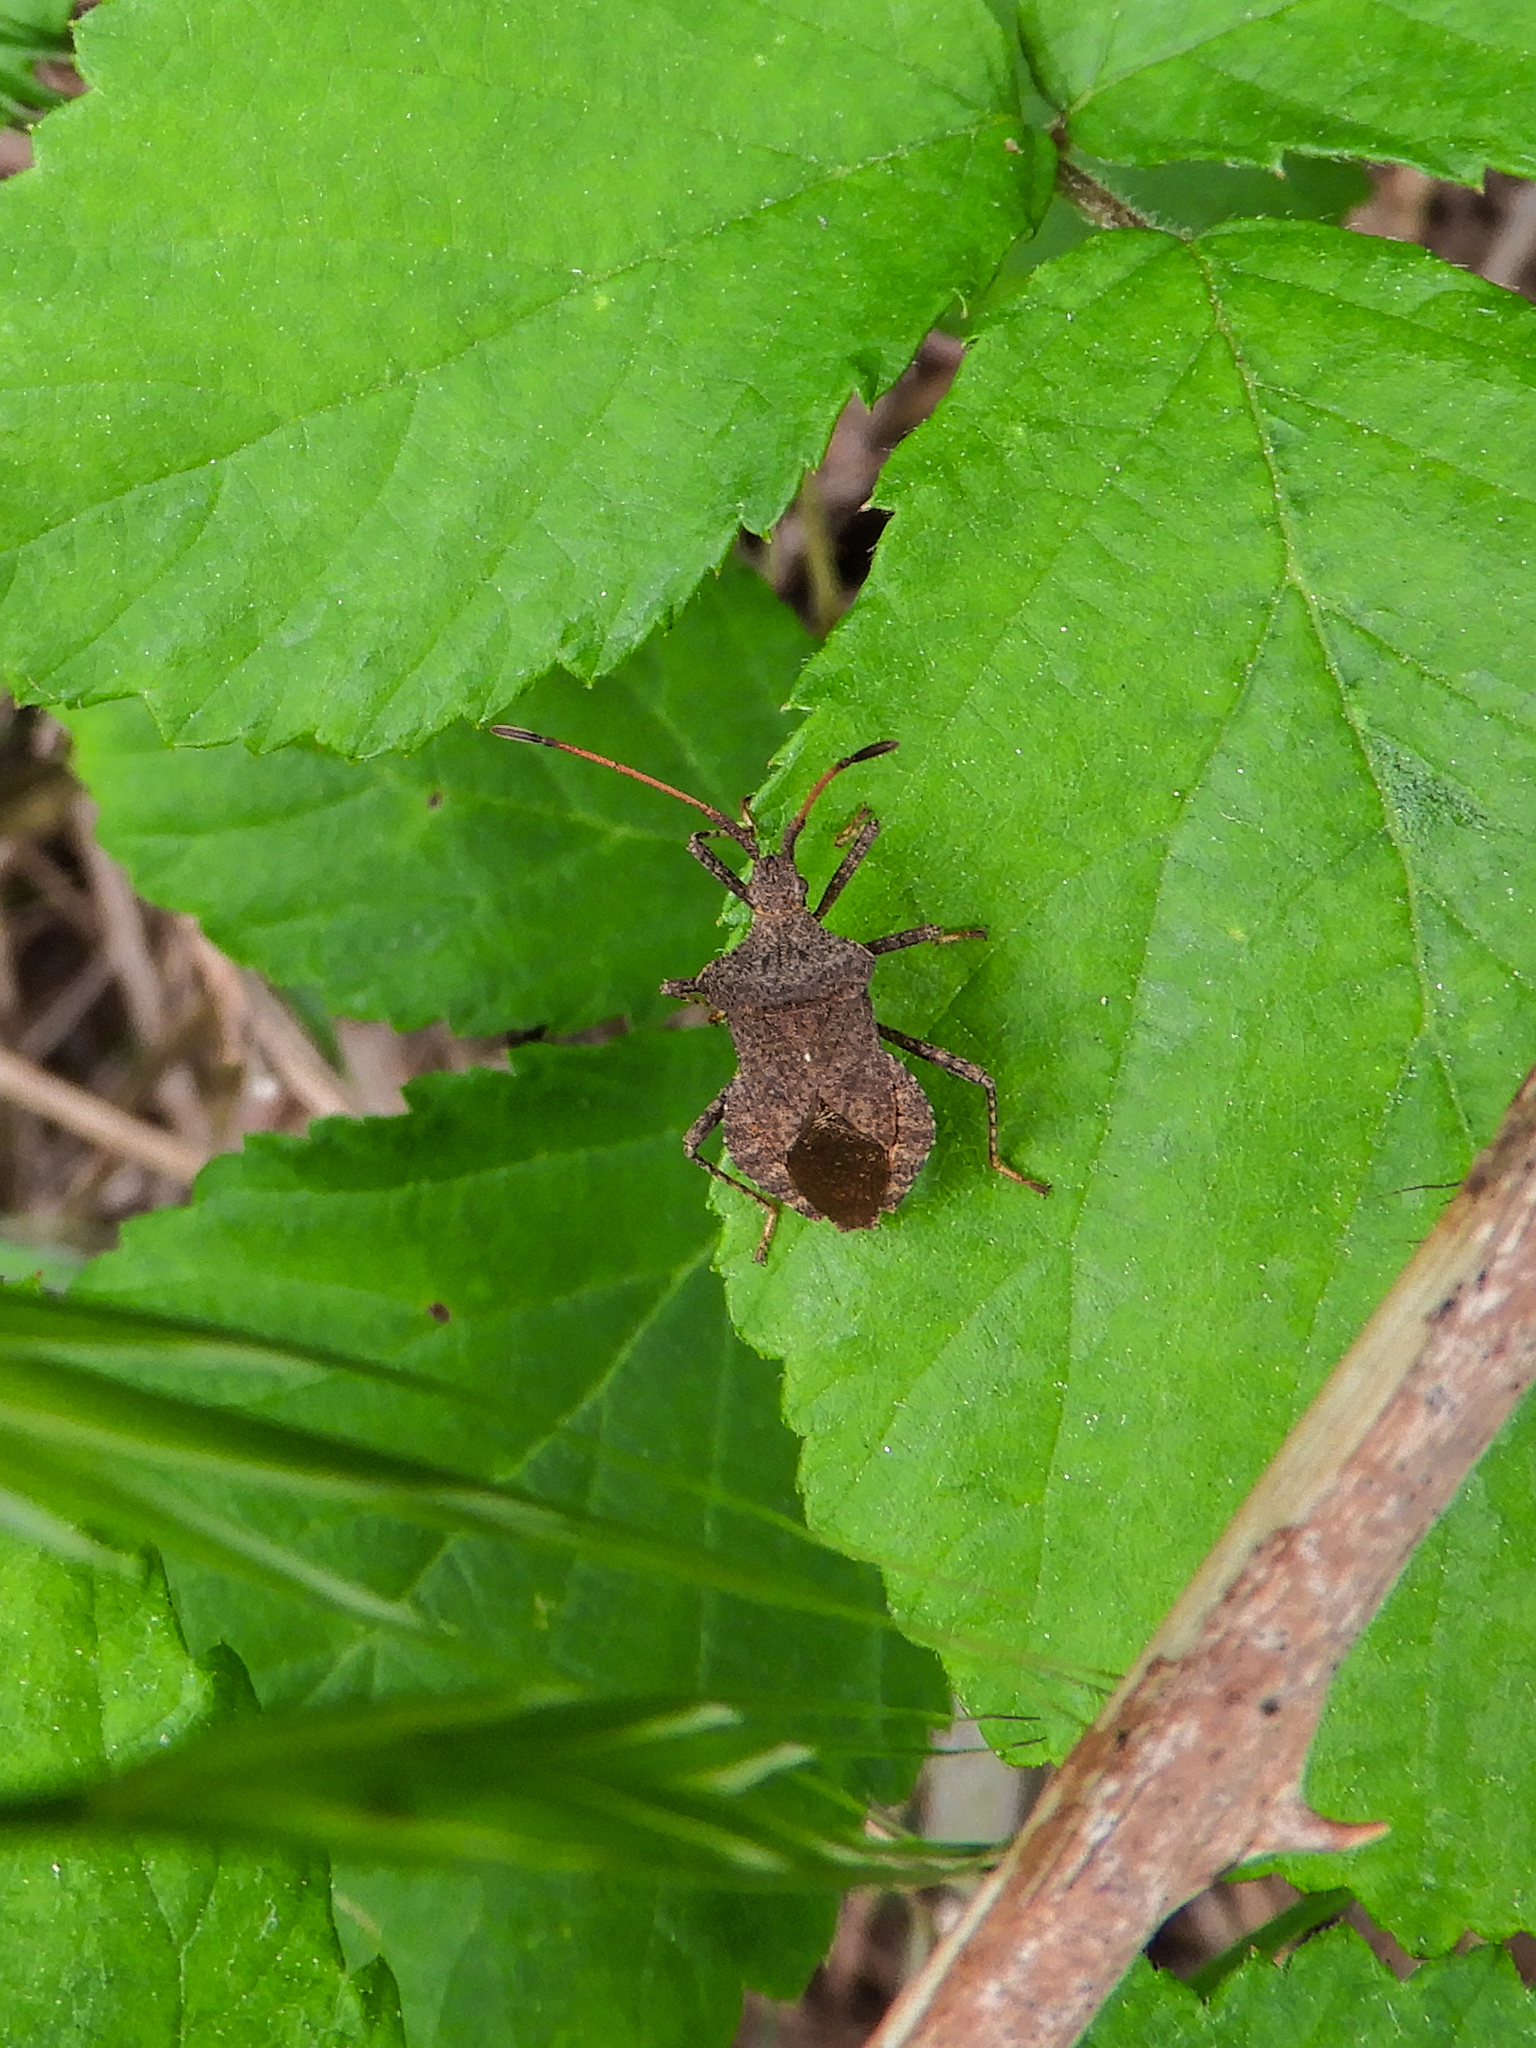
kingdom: Animalia
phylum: Arthropoda
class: Insecta
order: Hemiptera
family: Coreidae
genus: Coreus
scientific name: Coreus marginatus
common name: Dock bug
